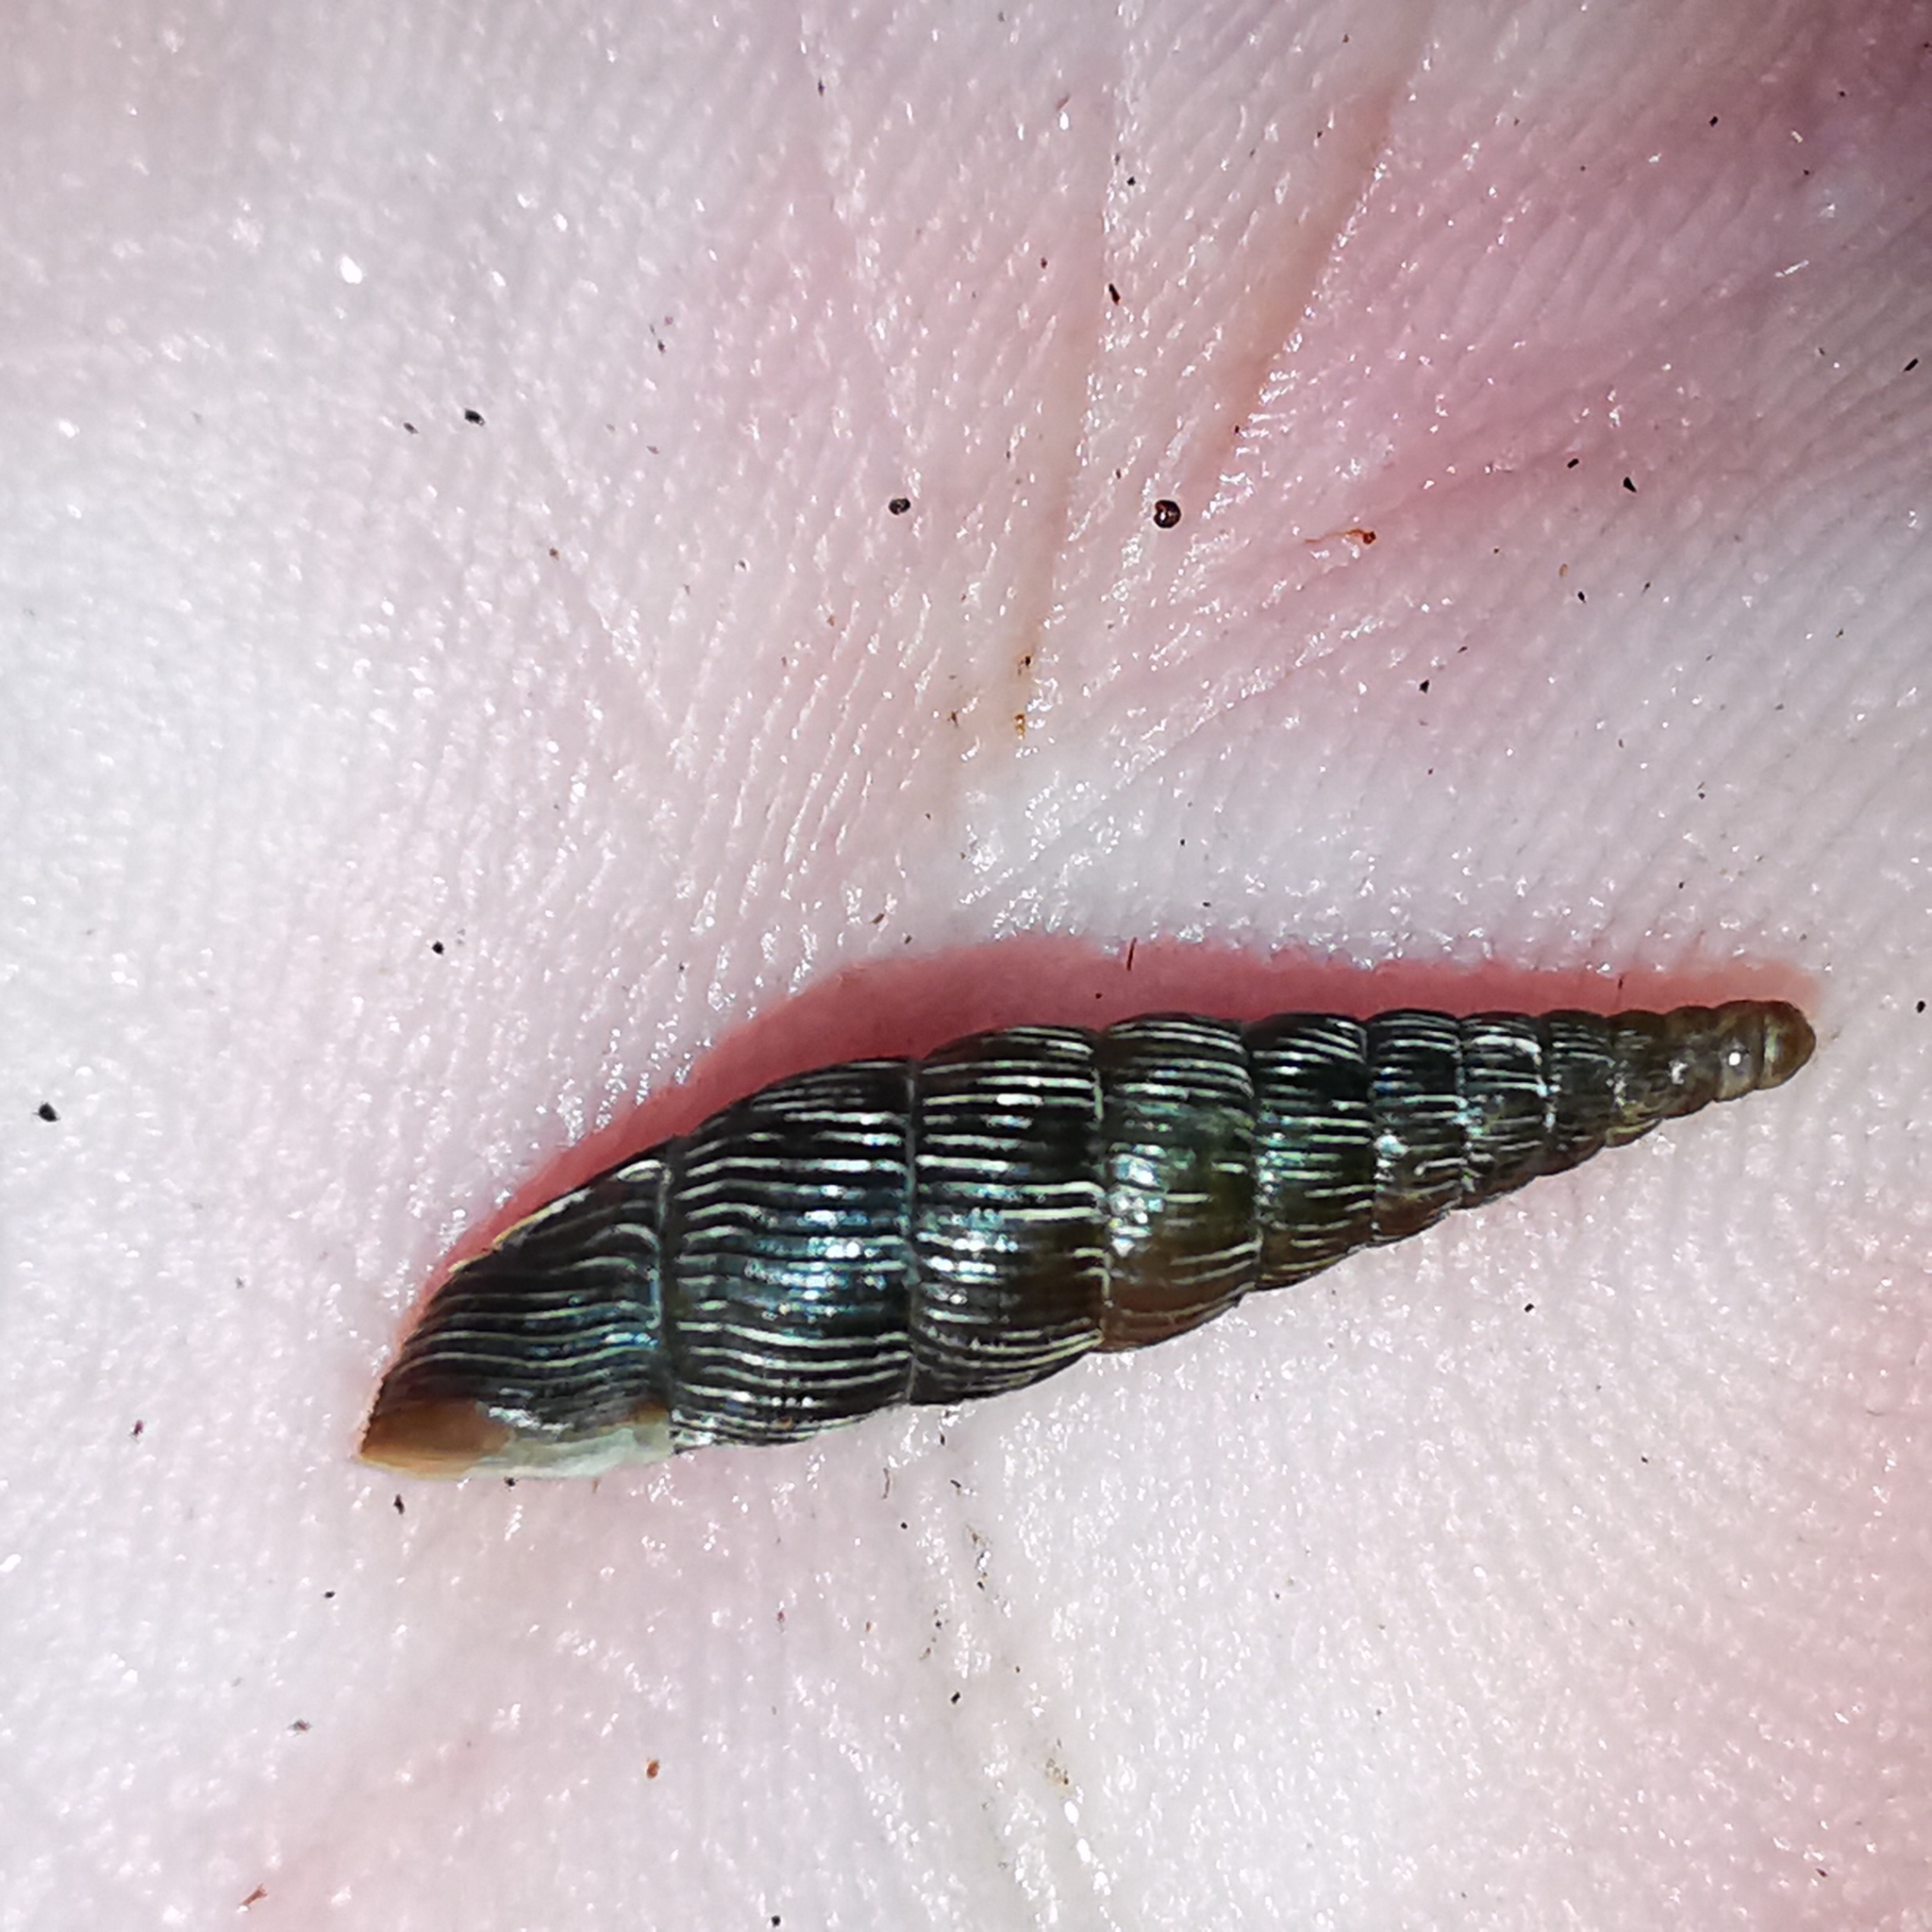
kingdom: Animalia
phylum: Mollusca
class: Gastropoda
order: Stylommatophora
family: Clausiliidae
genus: Strigillaria
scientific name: Strigillaria cana
